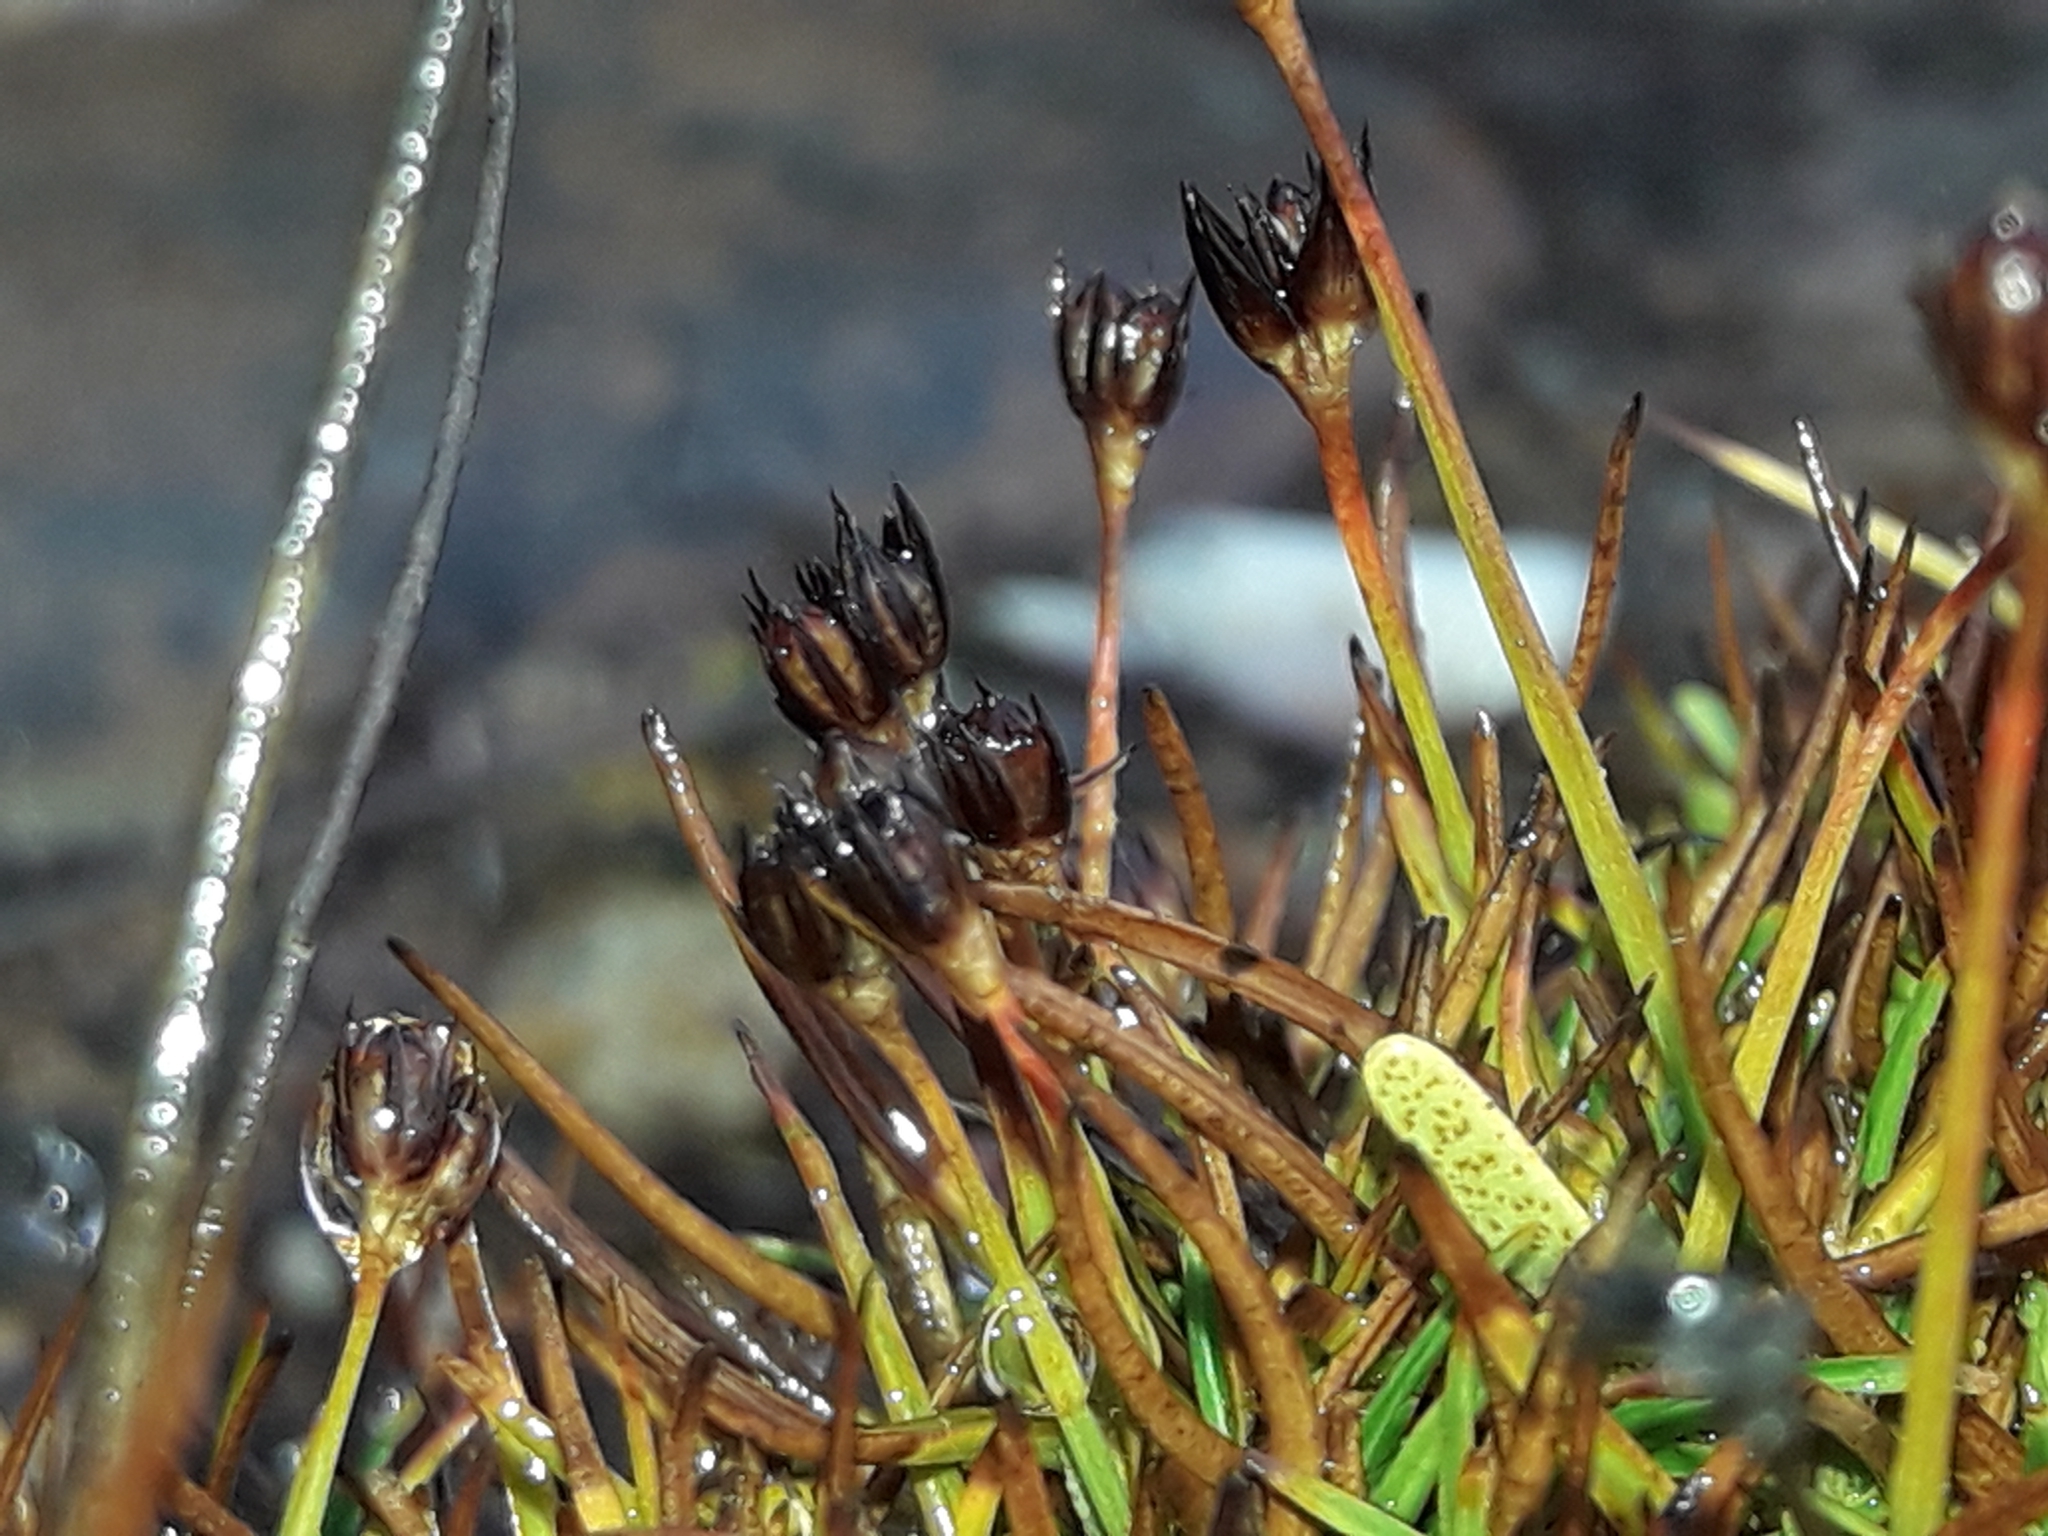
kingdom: Plantae
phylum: Tracheophyta
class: Liliopsida
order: Poales
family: Juncaceae
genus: Juncus
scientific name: Juncus antarcticus
